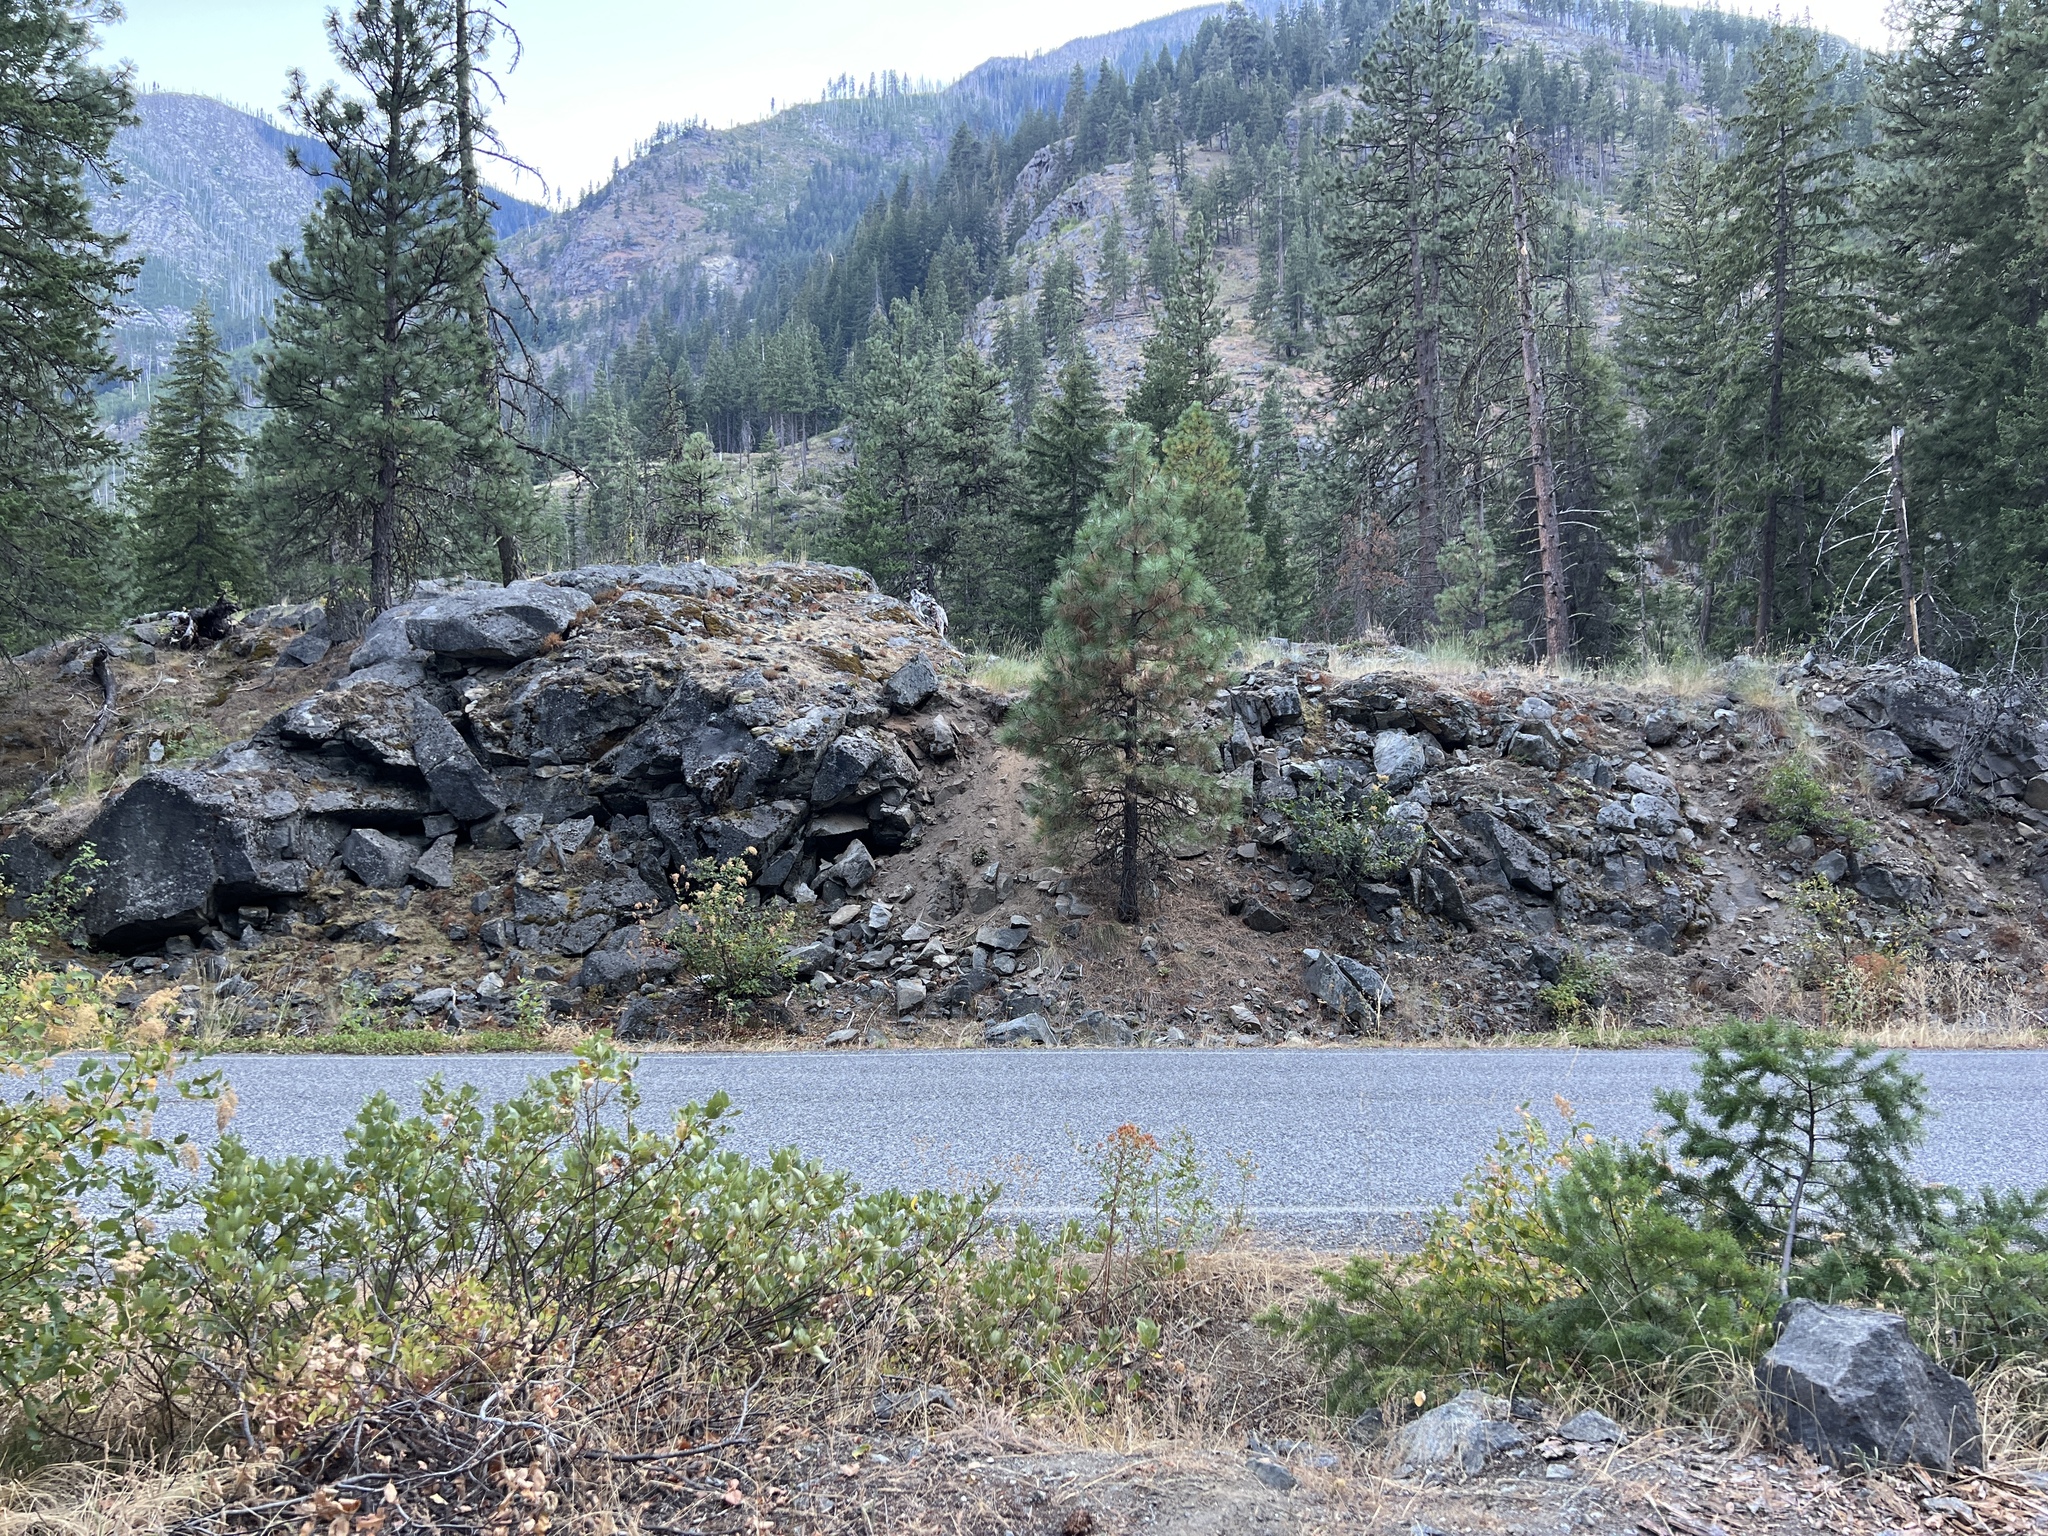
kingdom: Plantae
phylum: Tracheophyta
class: Polypodiopsida
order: Polypodiales
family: Pteridaceae
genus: Myriopteris
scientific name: Myriopteris gracillima
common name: Lace fern
